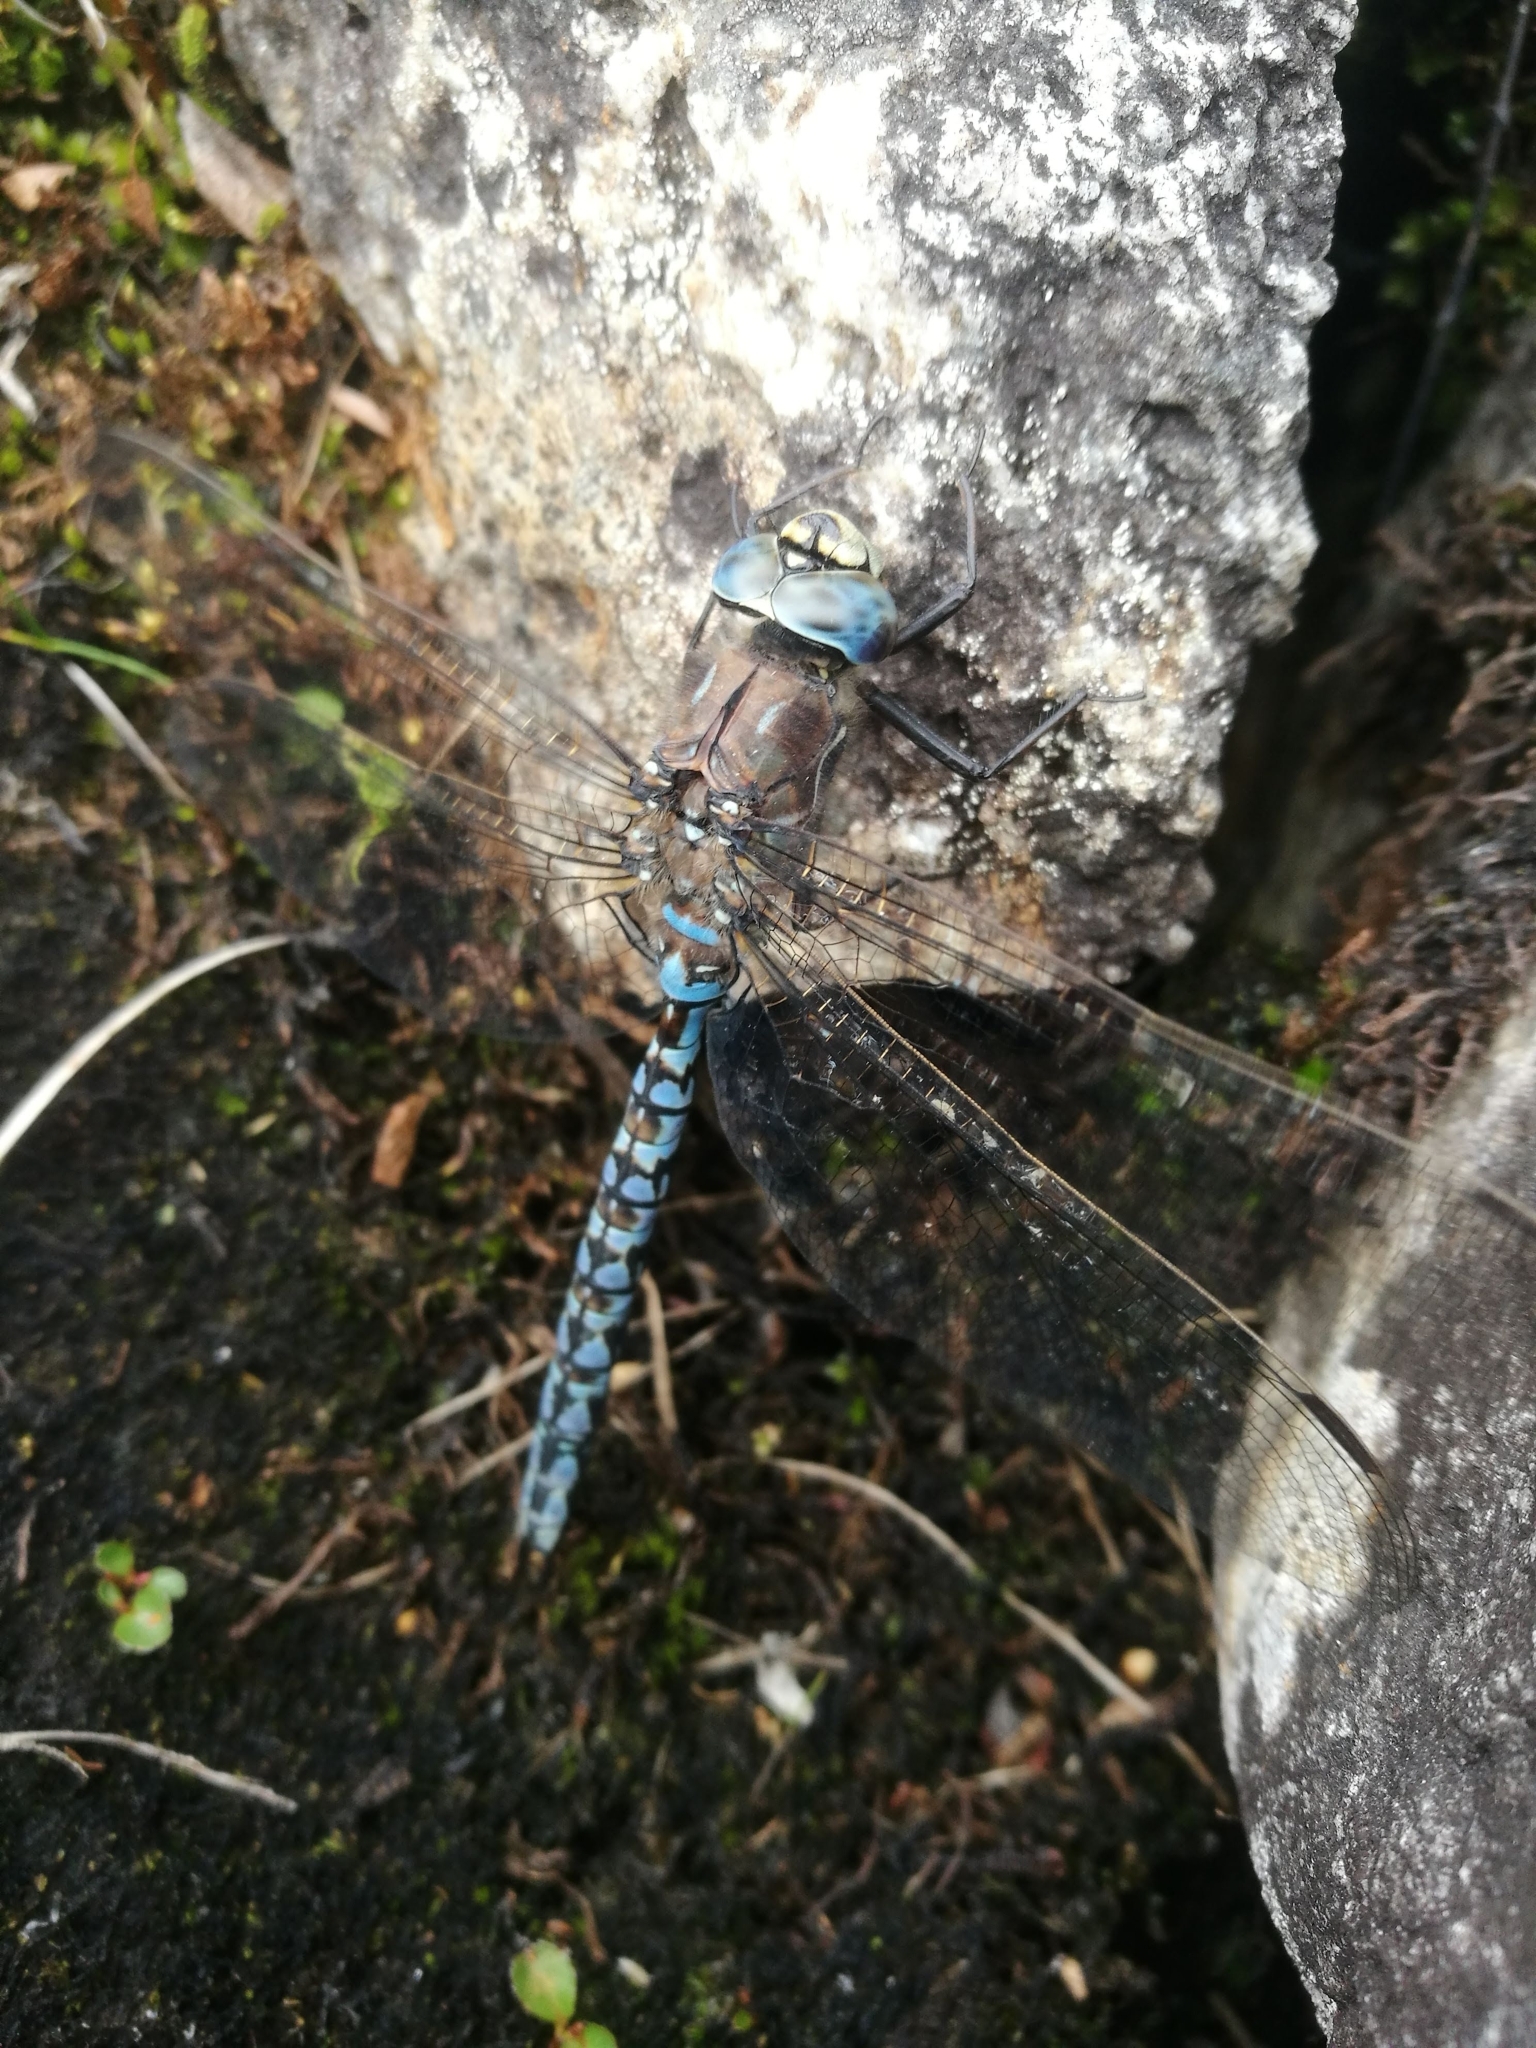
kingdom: Animalia
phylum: Arthropoda
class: Insecta
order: Odonata
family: Aeshnidae
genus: Aeshna
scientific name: Aeshna caerulea
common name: Azure hawker
